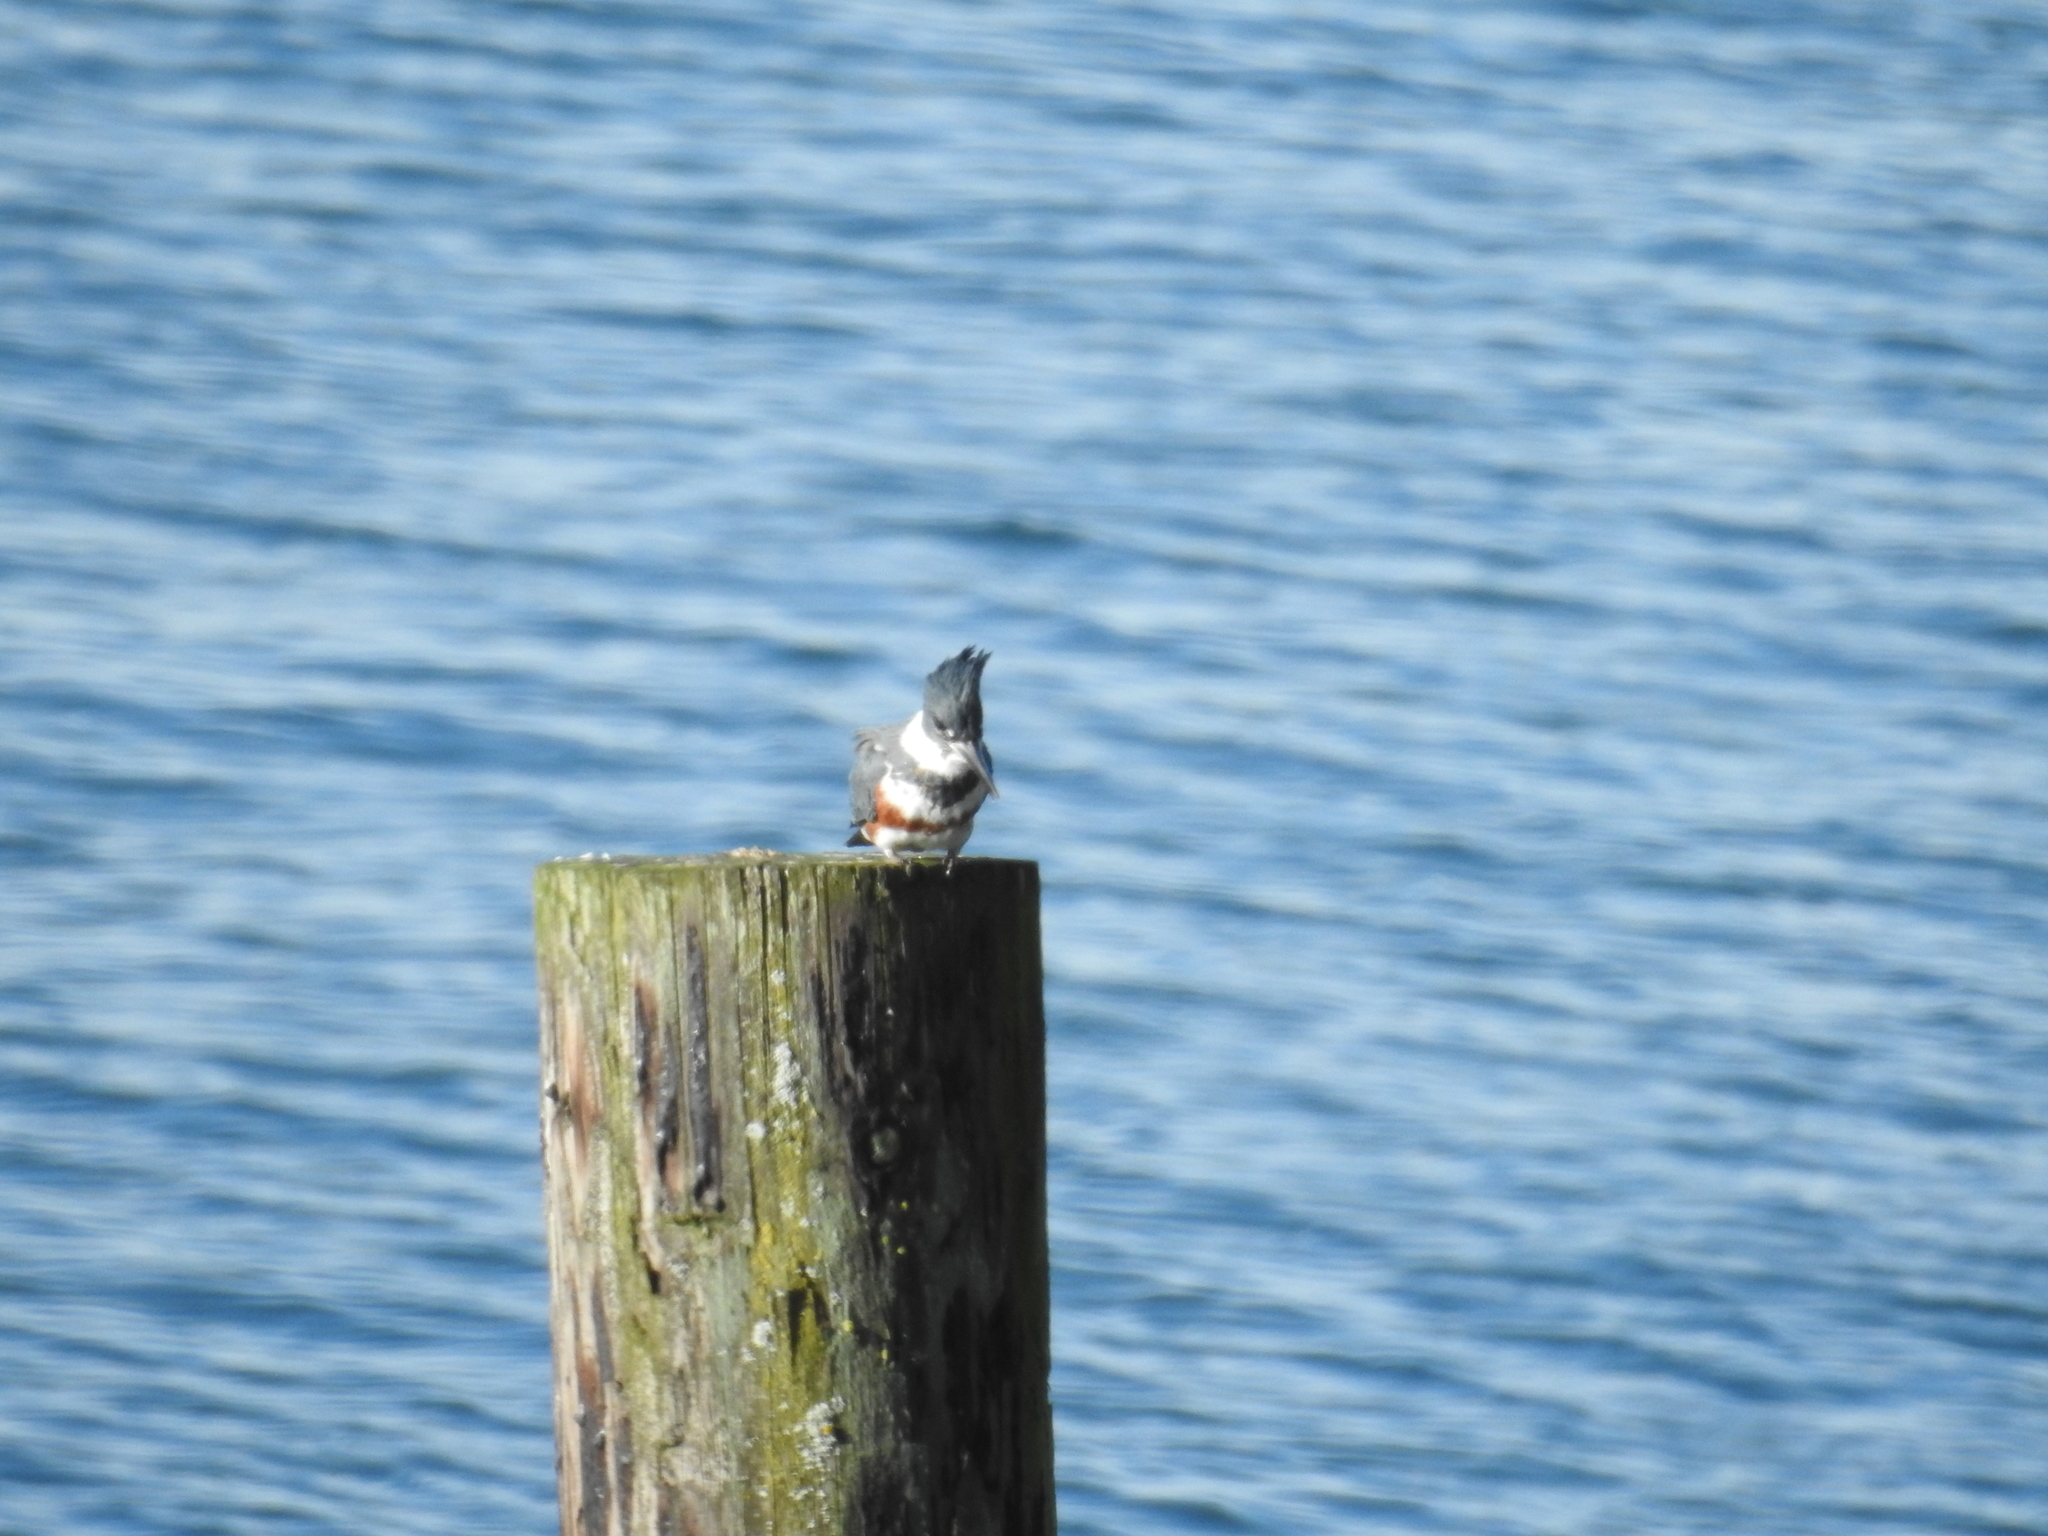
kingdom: Animalia
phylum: Chordata
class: Aves
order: Coraciiformes
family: Alcedinidae
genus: Megaceryle
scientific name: Megaceryle alcyon
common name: Belted kingfisher
